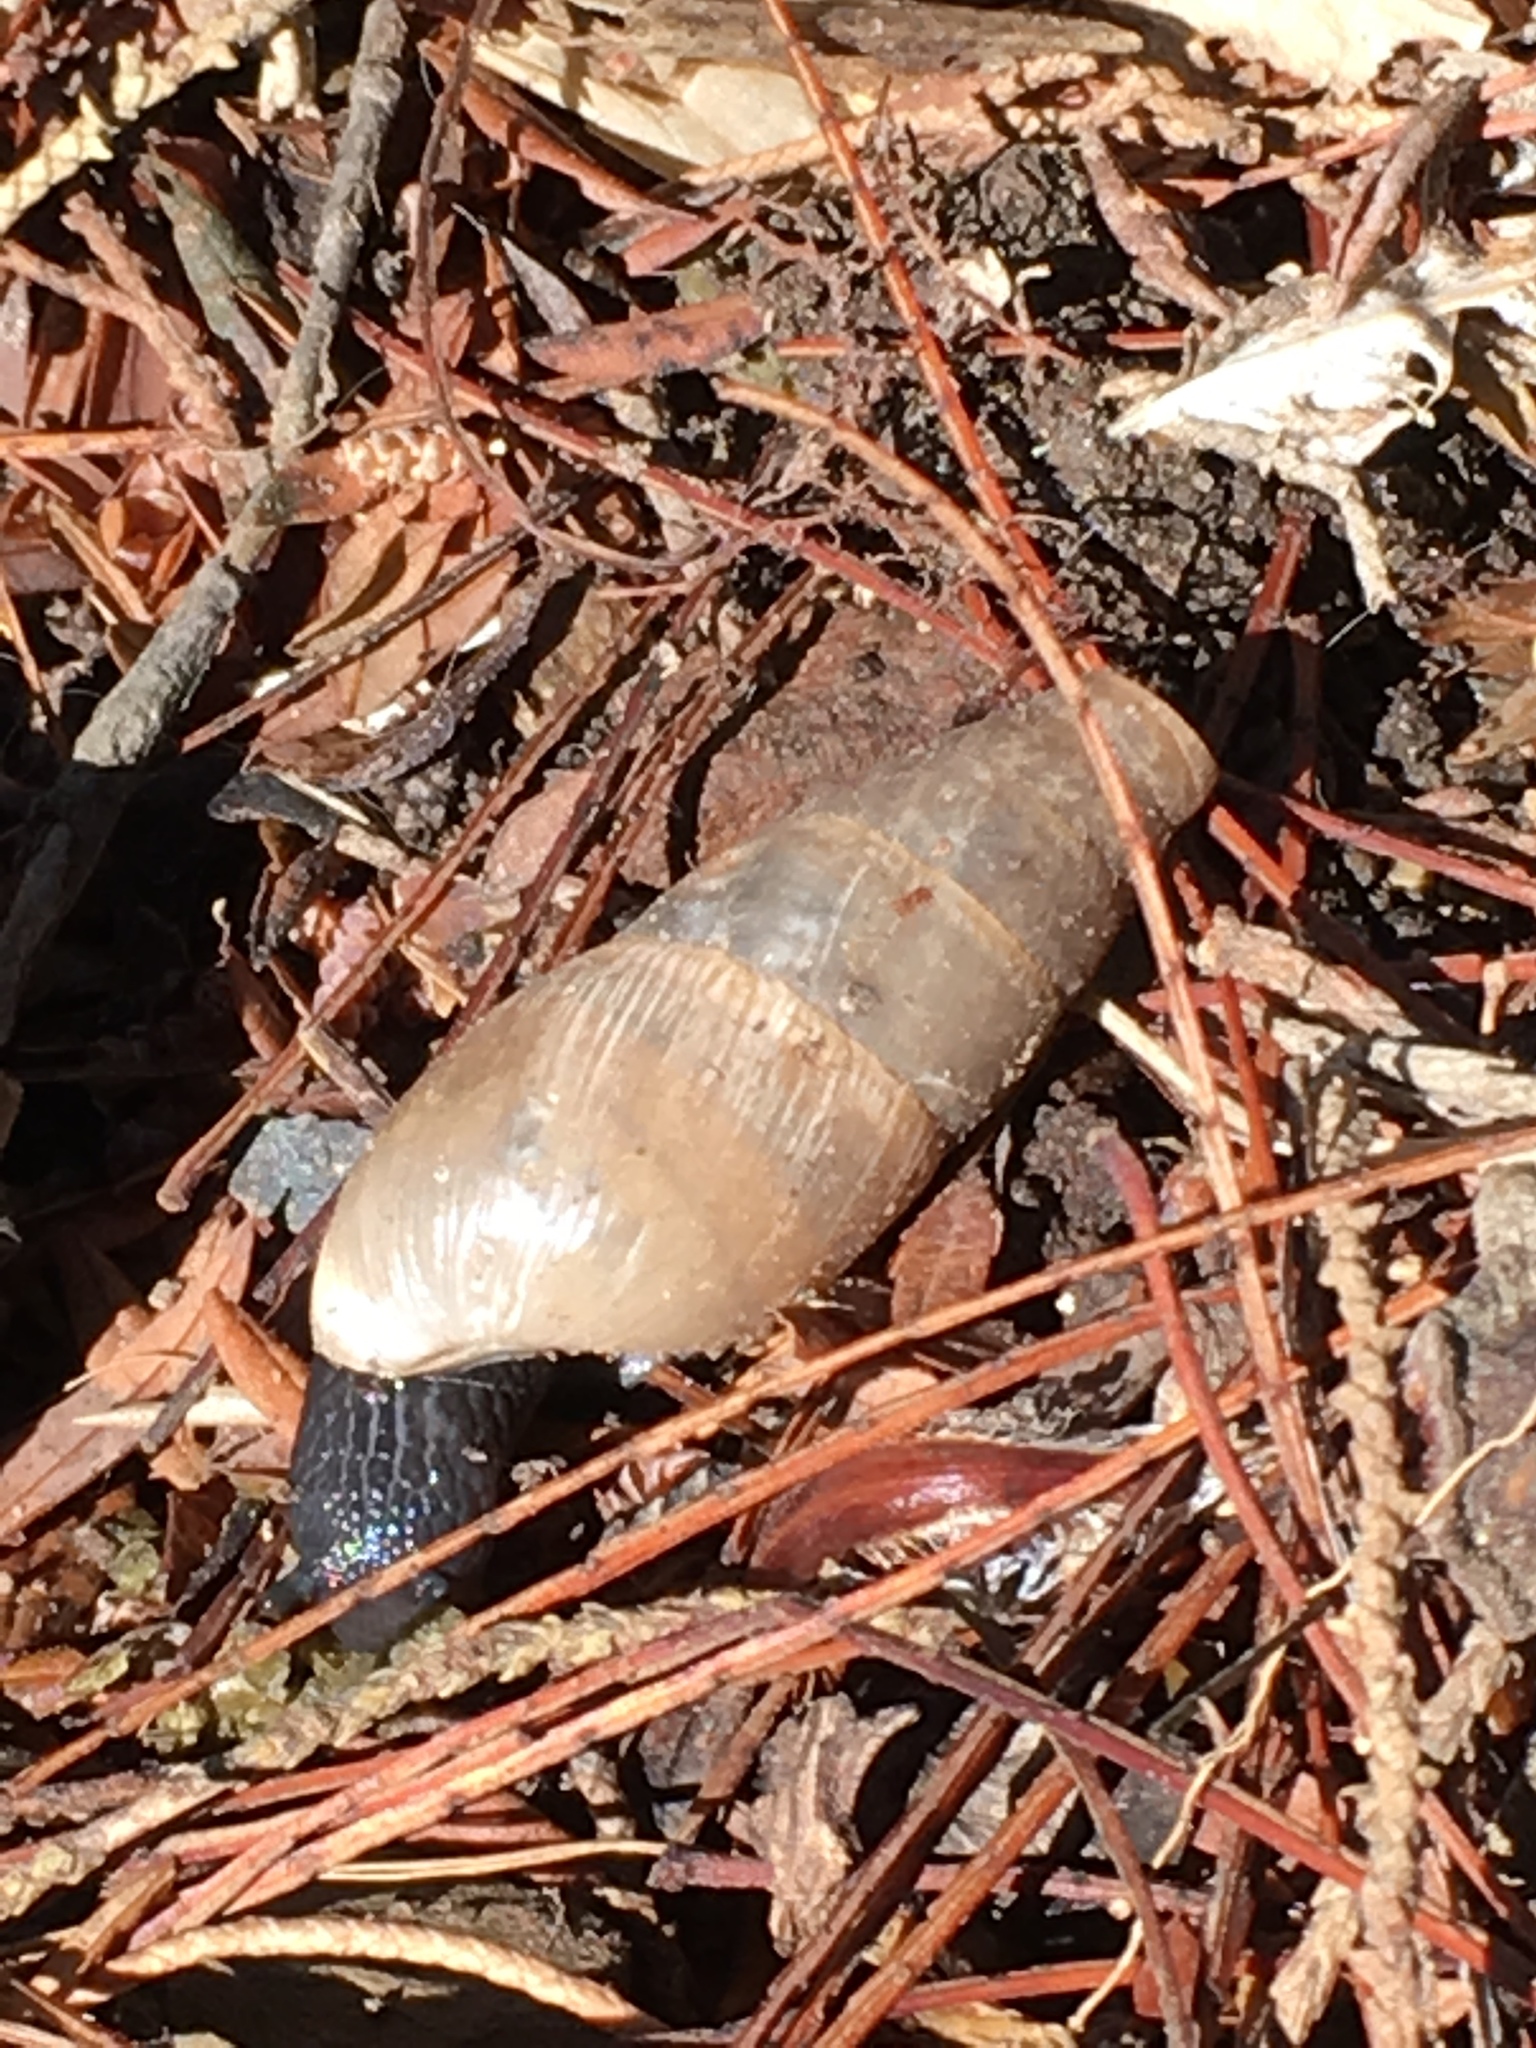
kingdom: Animalia
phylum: Mollusca
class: Gastropoda
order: Stylommatophora
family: Achatinidae
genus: Rumina
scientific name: Rumina decollata
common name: Decollate snail
